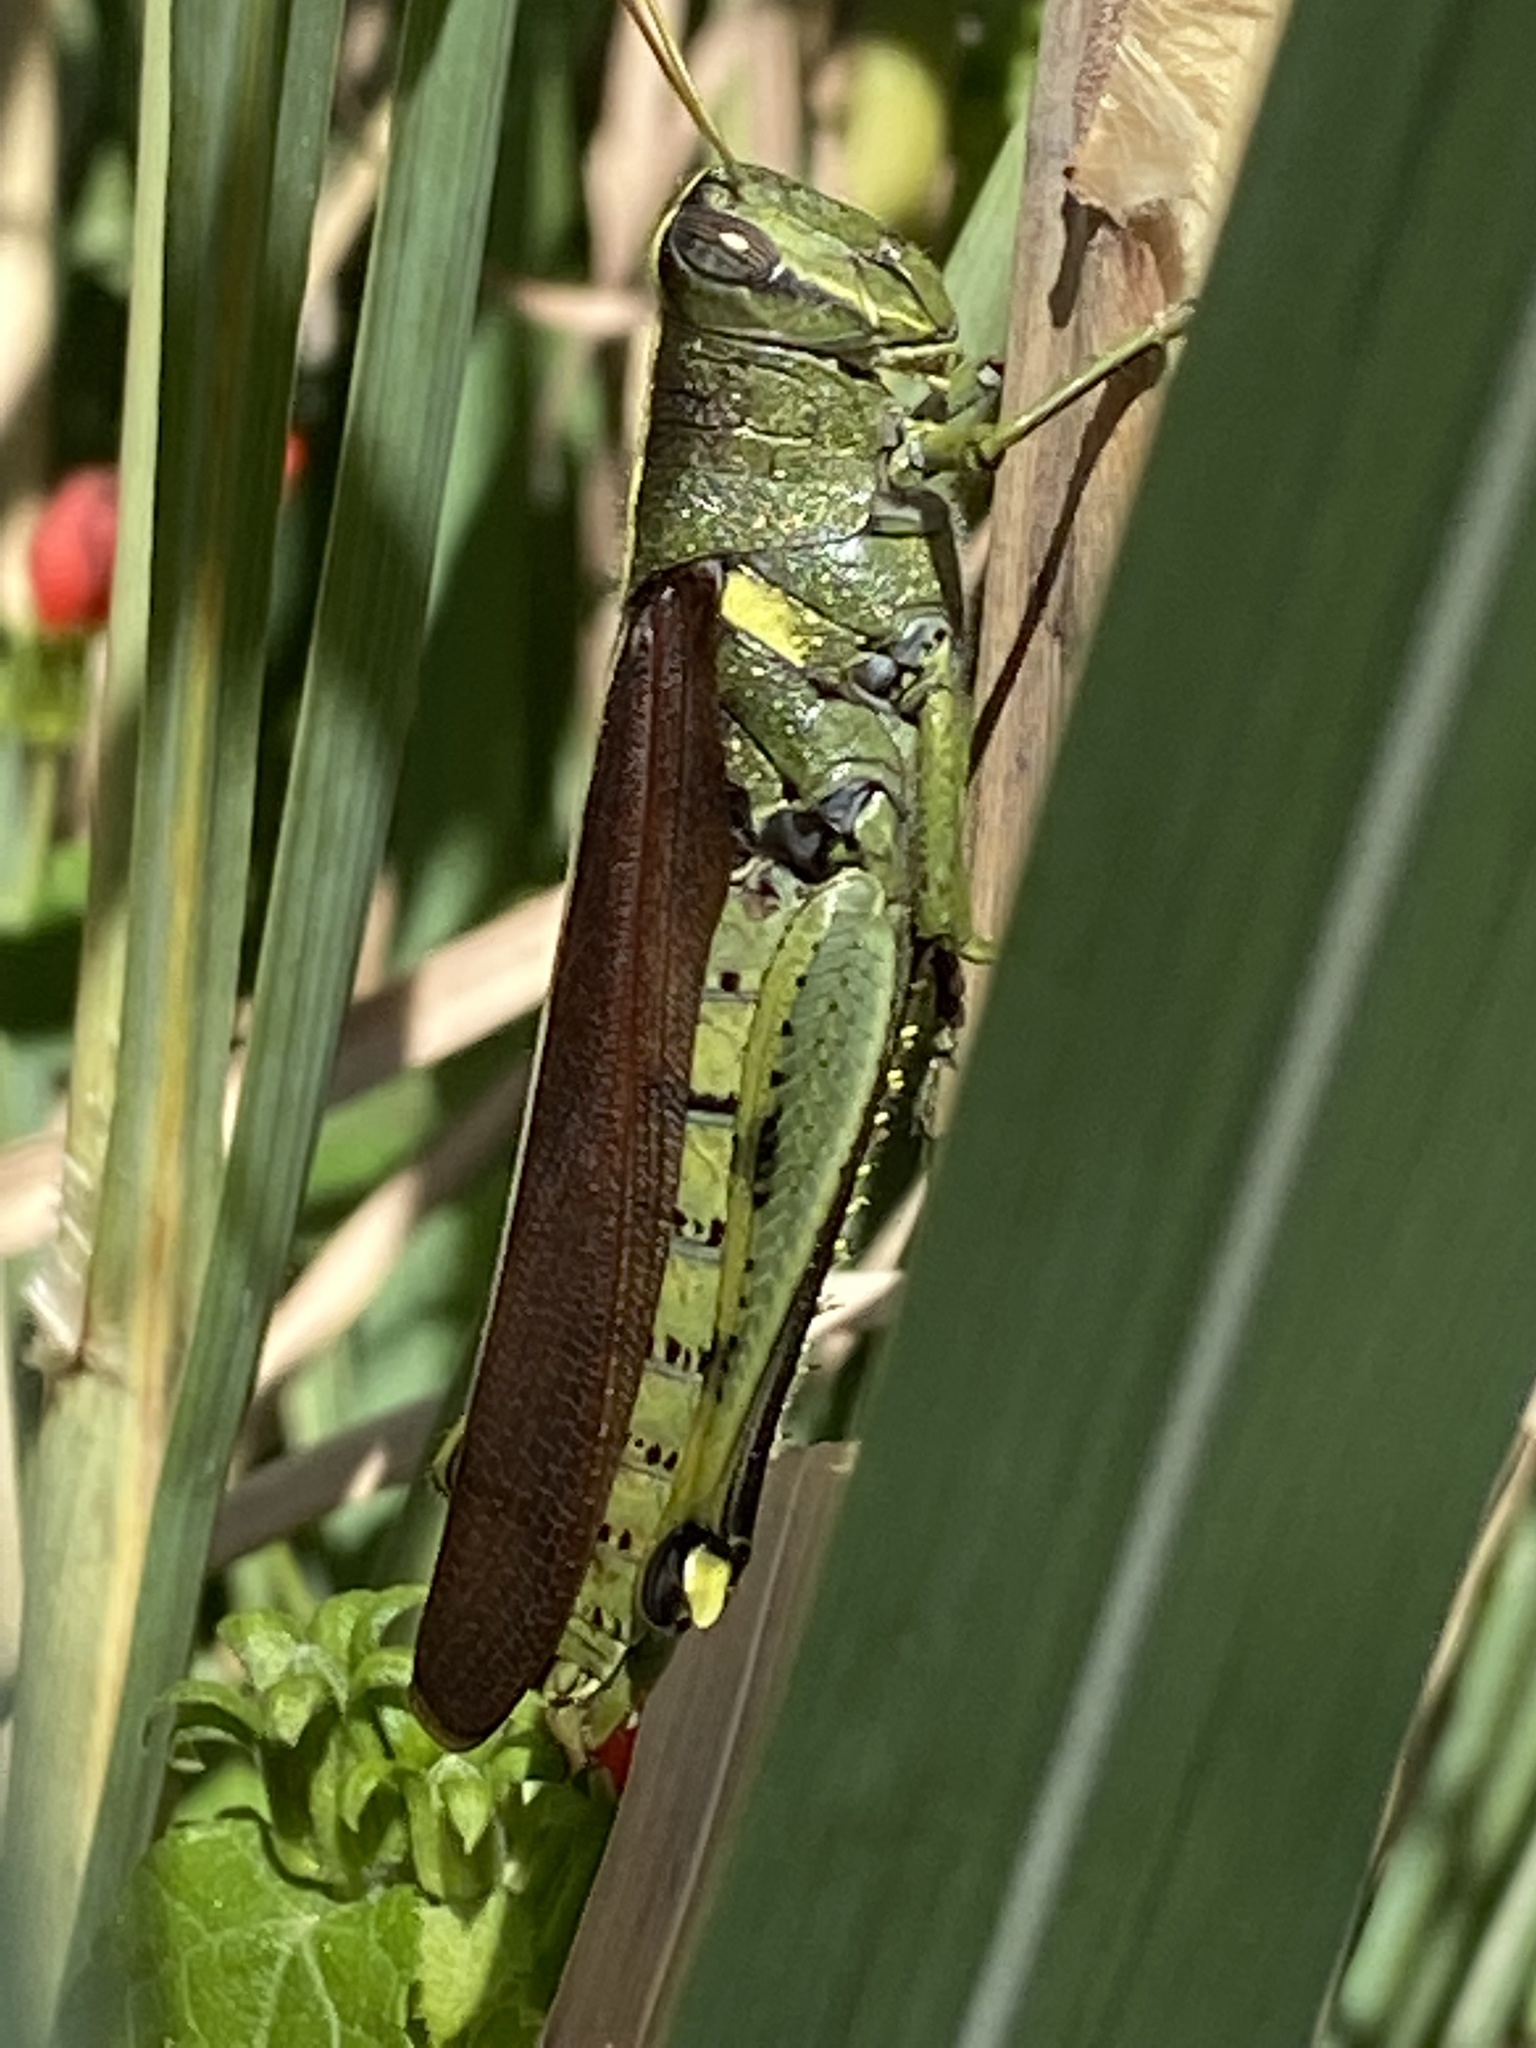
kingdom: Animalia
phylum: Arthropoda
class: Insecta
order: Orthoptera
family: Acrididae
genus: Schistocerca
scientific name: Schistocerca obscura
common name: Obscure bird grasshopper
